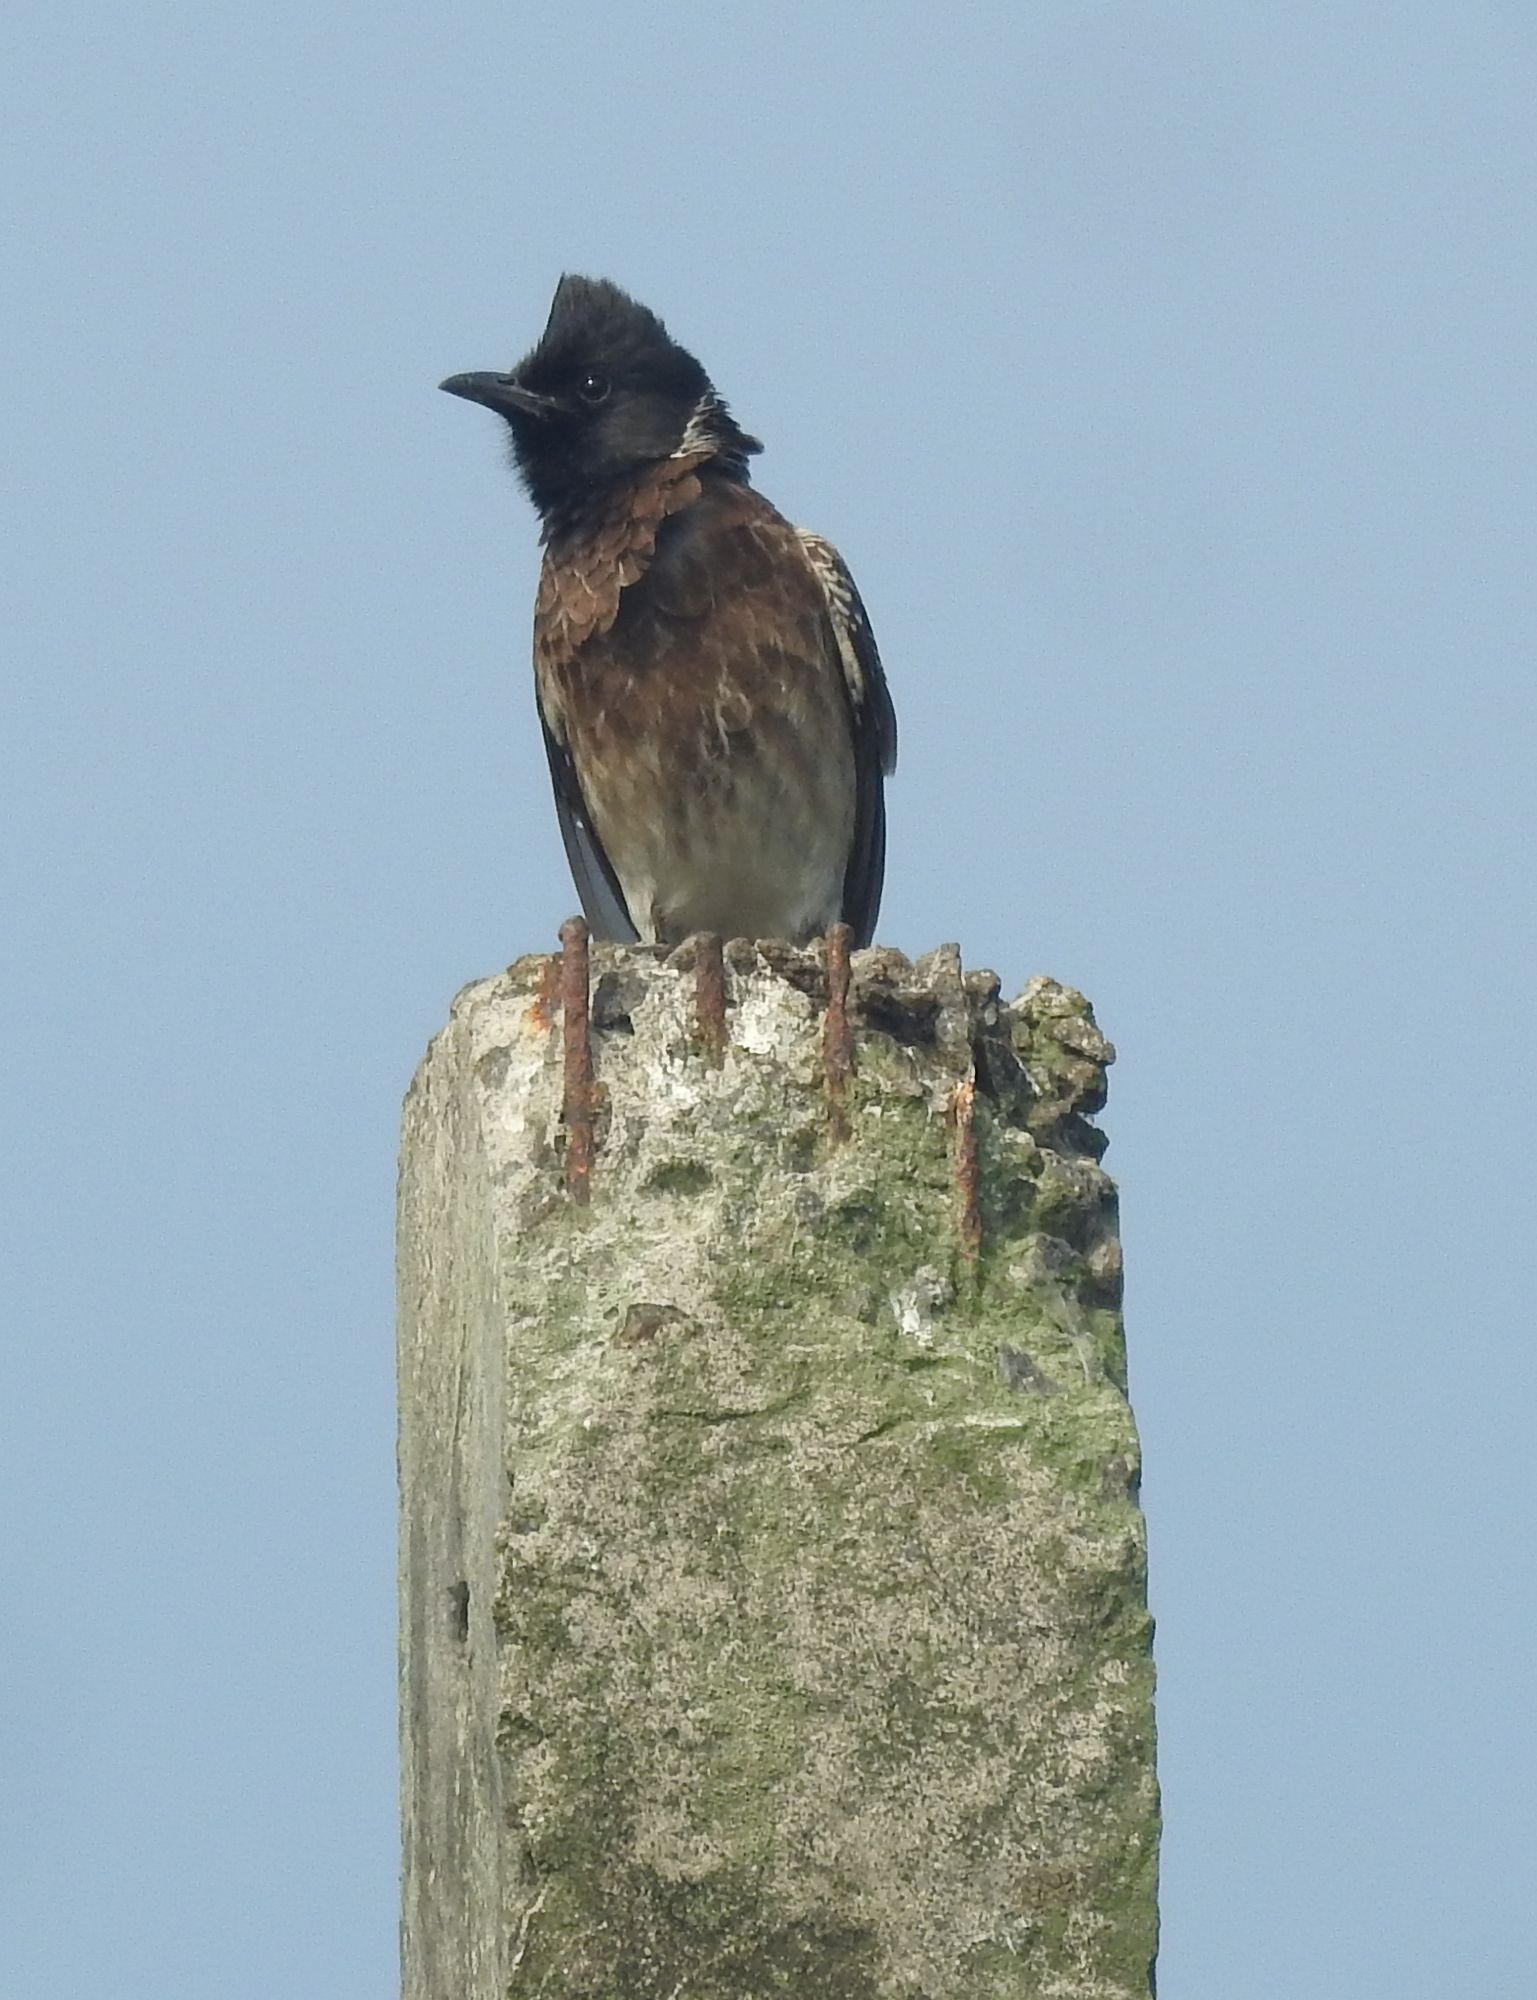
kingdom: Animalia
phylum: Chordata
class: Aves
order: Passeriformes
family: Pycnonotidae
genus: Pycnonotus
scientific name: Pycnonotus cafer
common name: Red-vented bulbul
